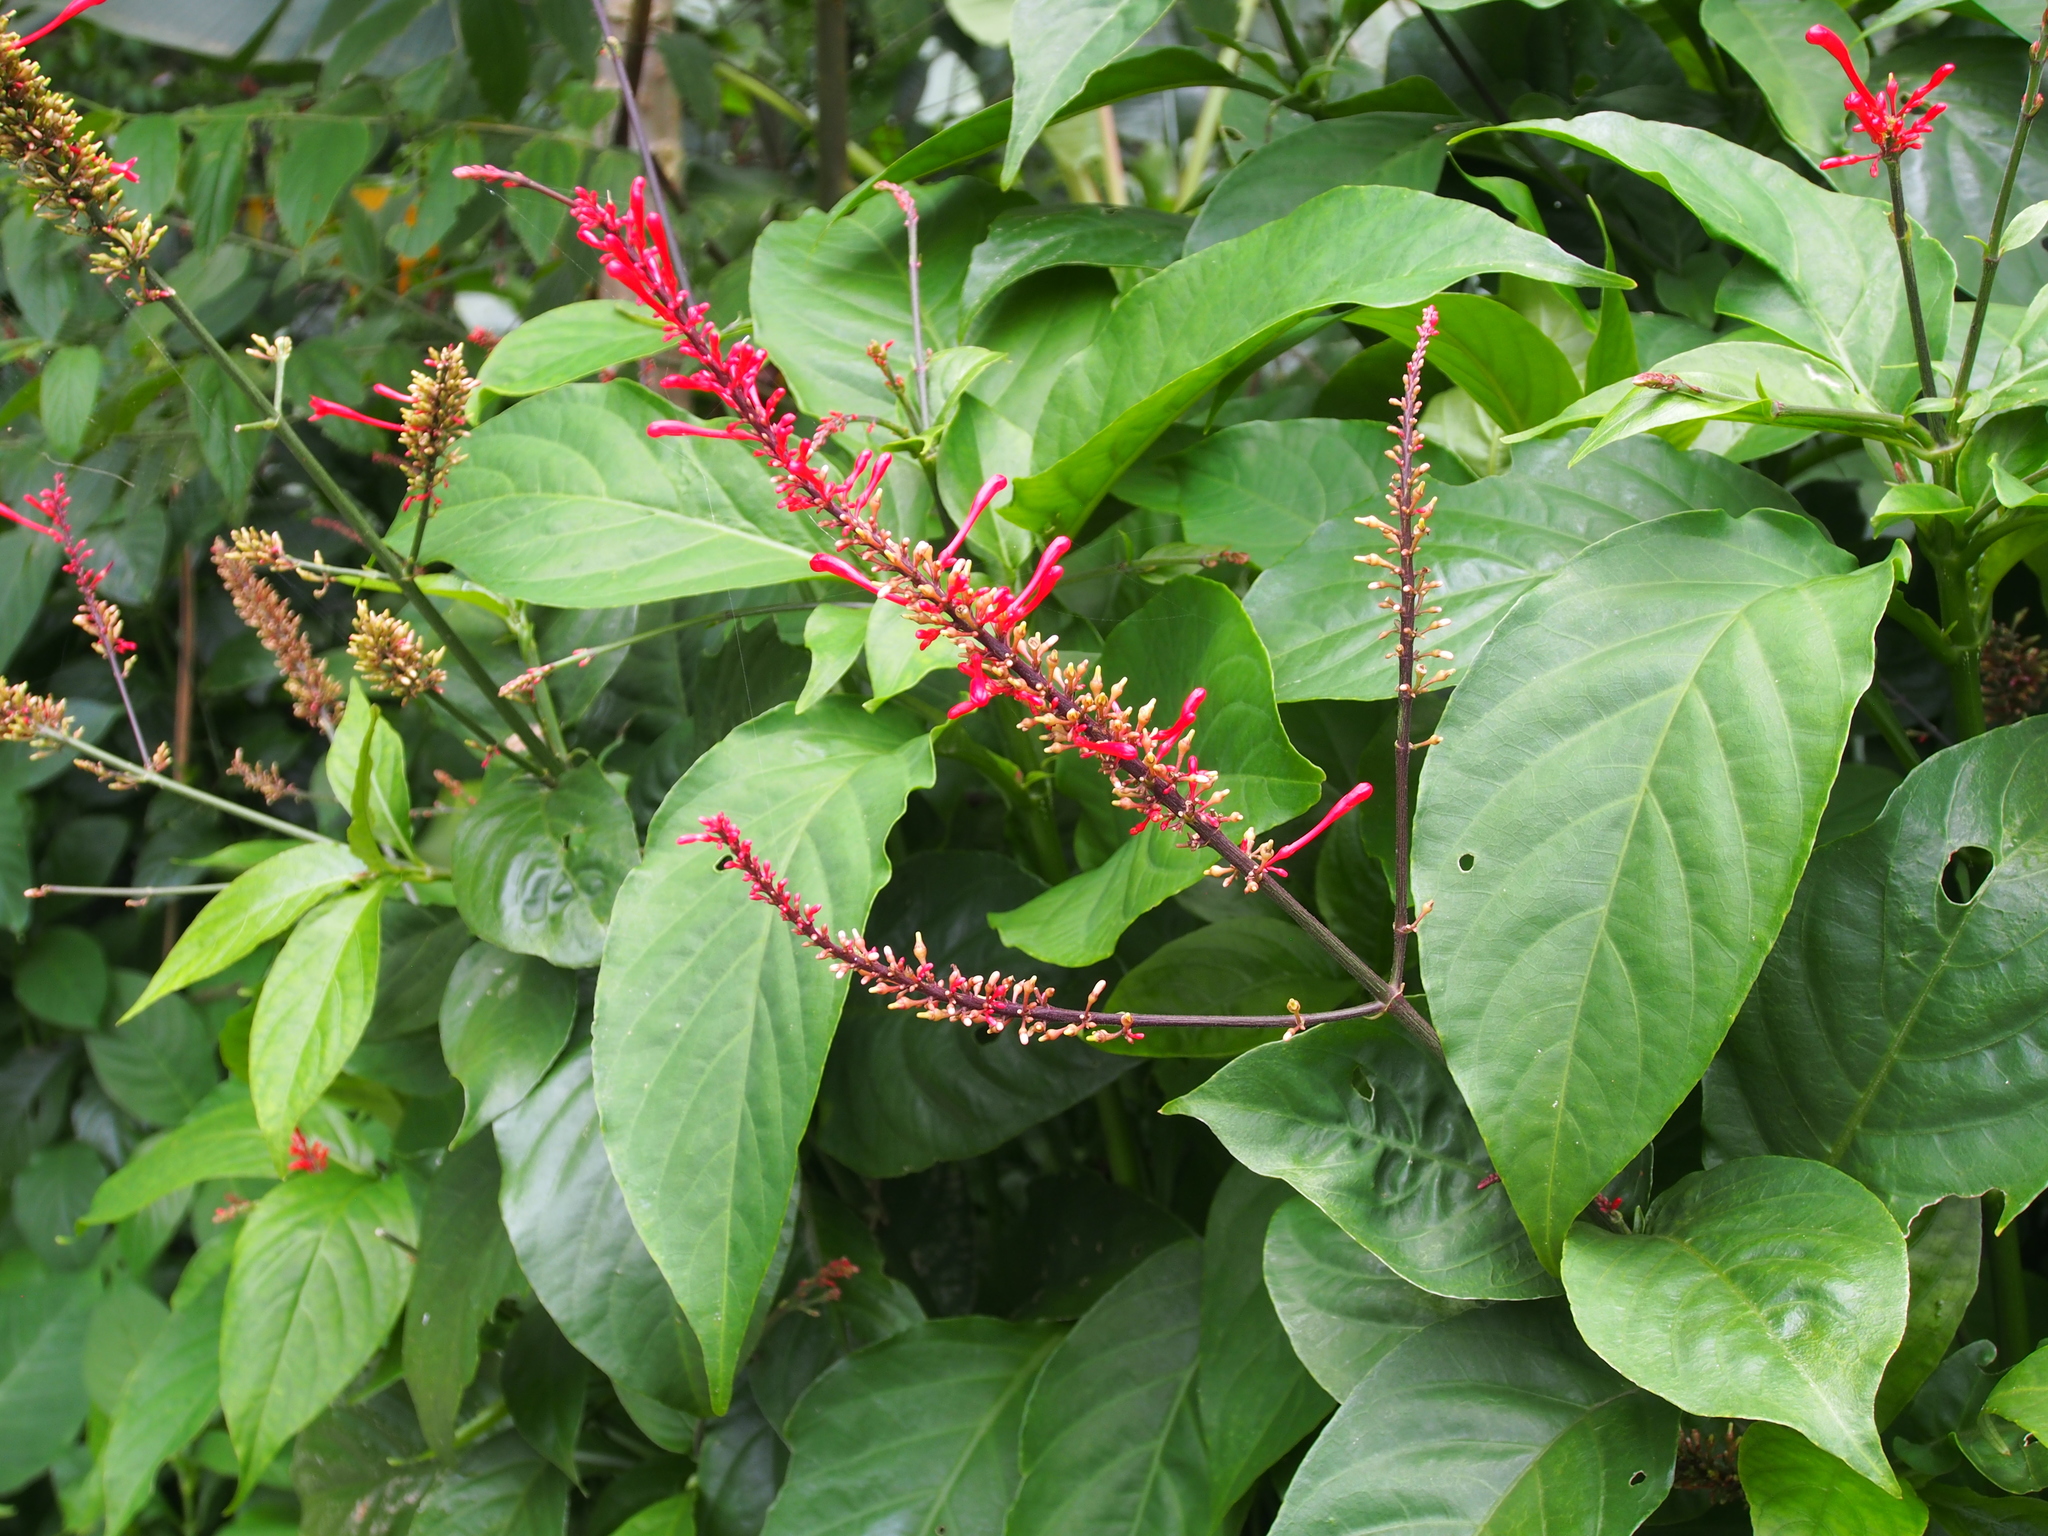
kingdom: Plantae
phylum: Tracheophyta
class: Magnoliopsida
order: Lamiales
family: Acanthaceae
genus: Odontonema
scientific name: Odontonema tubaeforme
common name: Firespike
